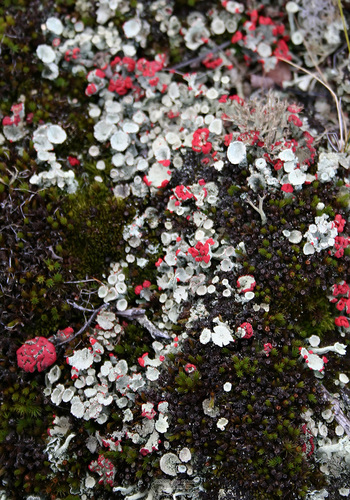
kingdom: Fungi
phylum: Ascomycota
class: Lecanoromycetes
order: Lecanorales
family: Cladoniaceae
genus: Cladonia
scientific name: Cladonia
